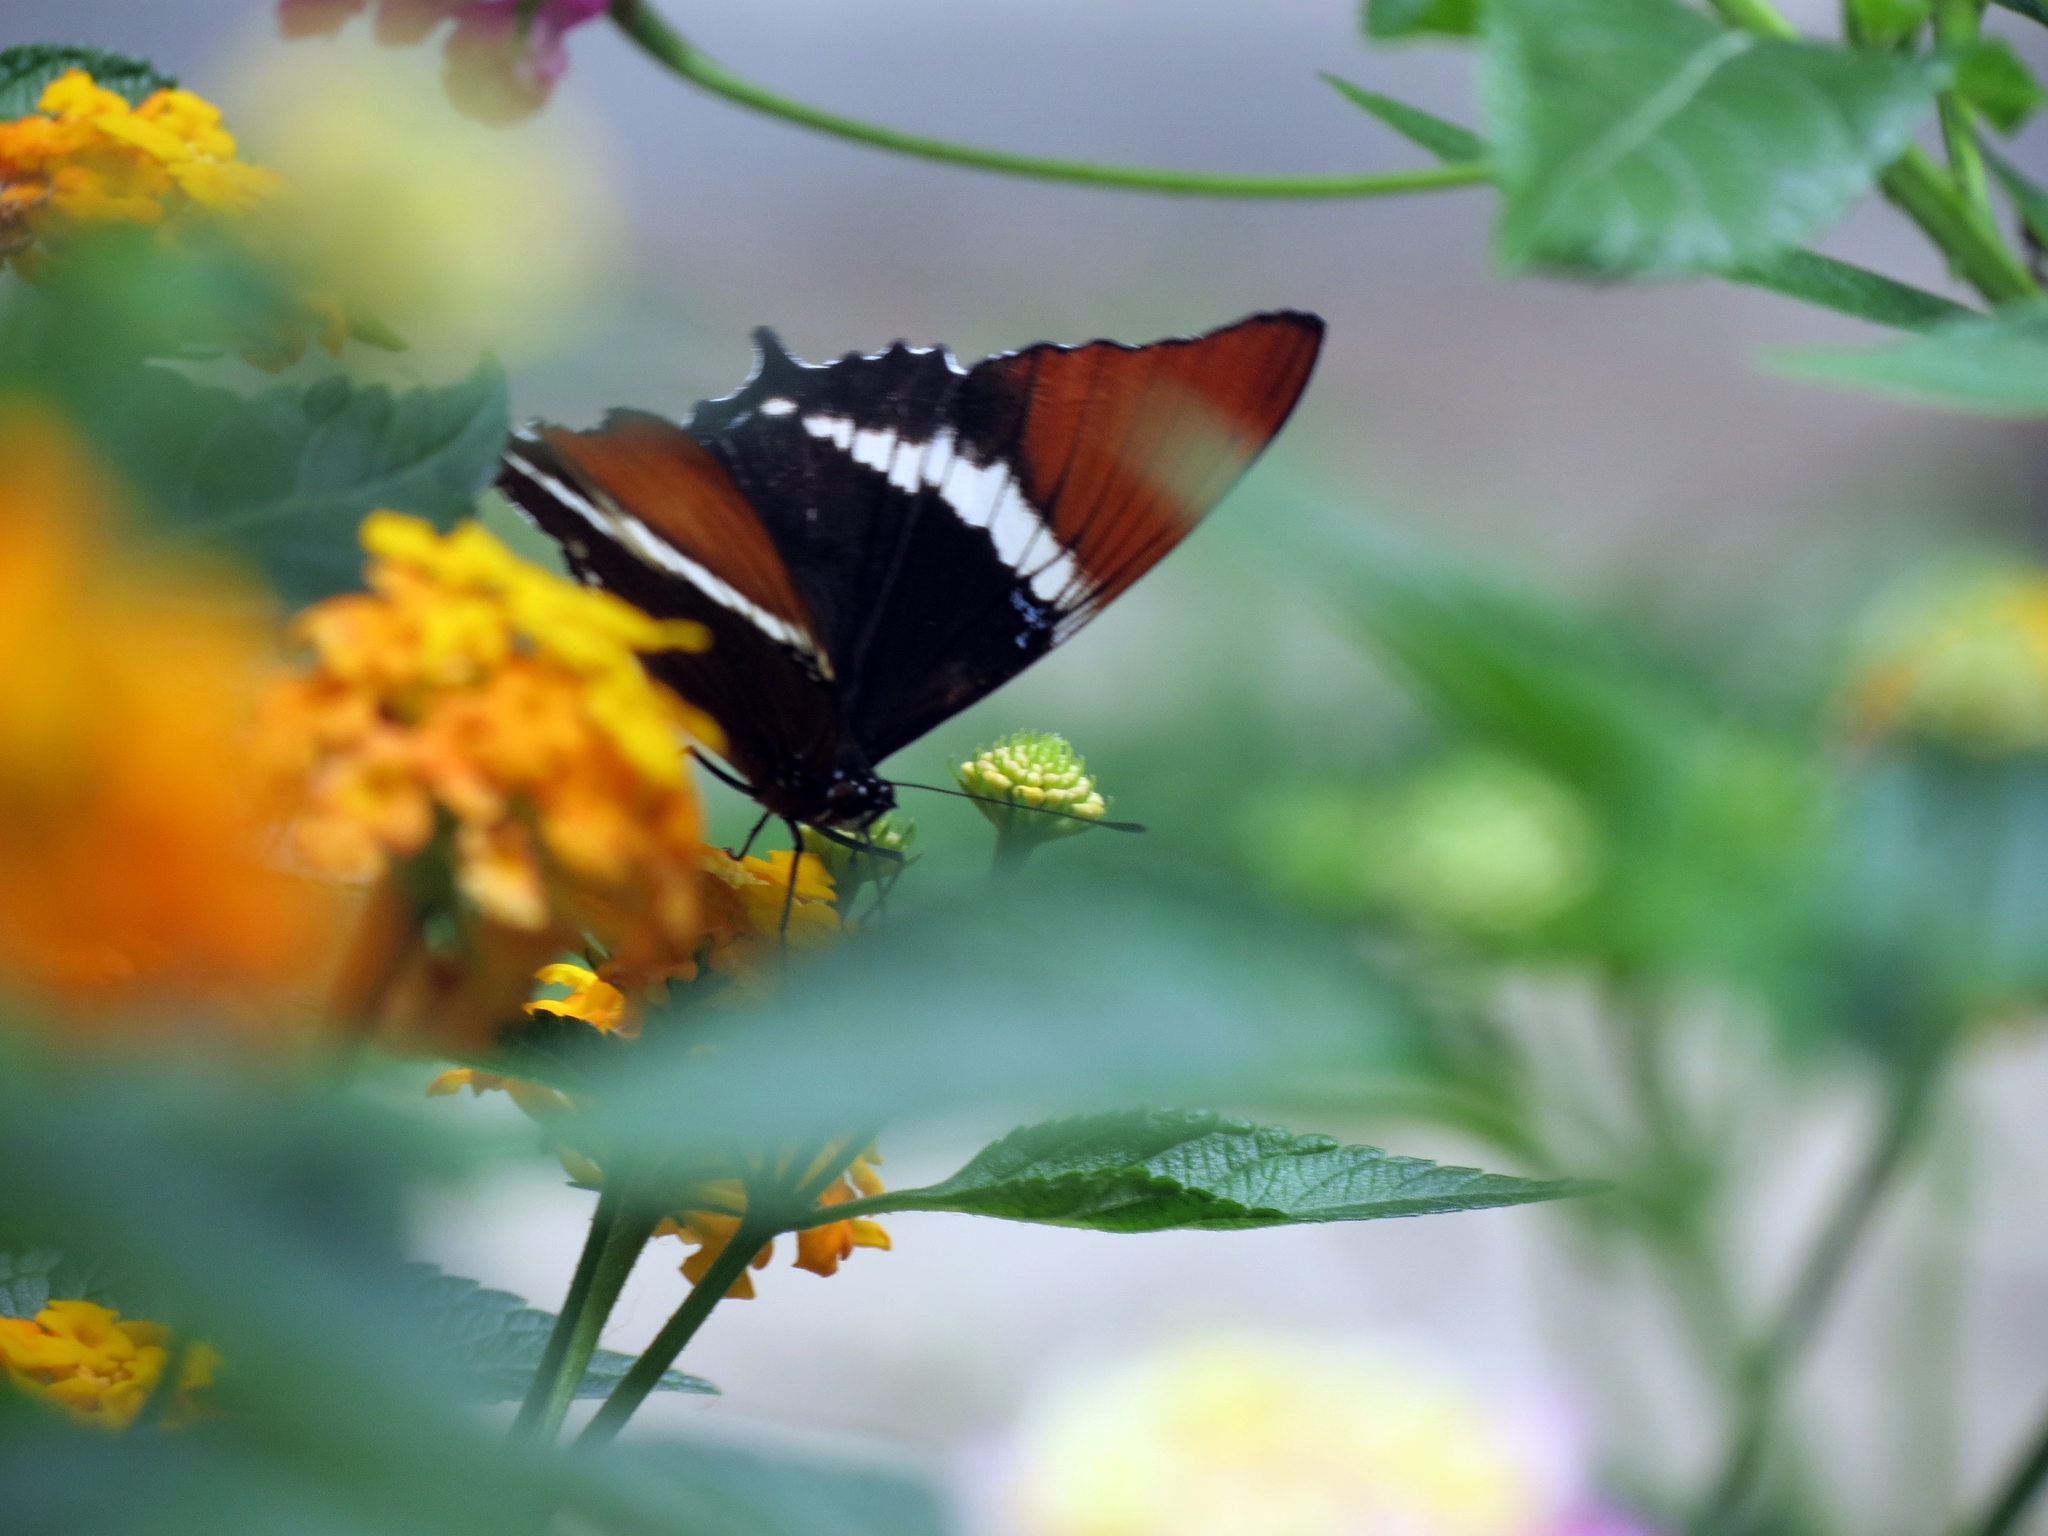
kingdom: Animalia
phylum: Arthropoda
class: Insecta
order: Lepidoptera
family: Nymphalidae
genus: Siproeta
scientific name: Siproeta epaphus
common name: Rusty-tipped page
